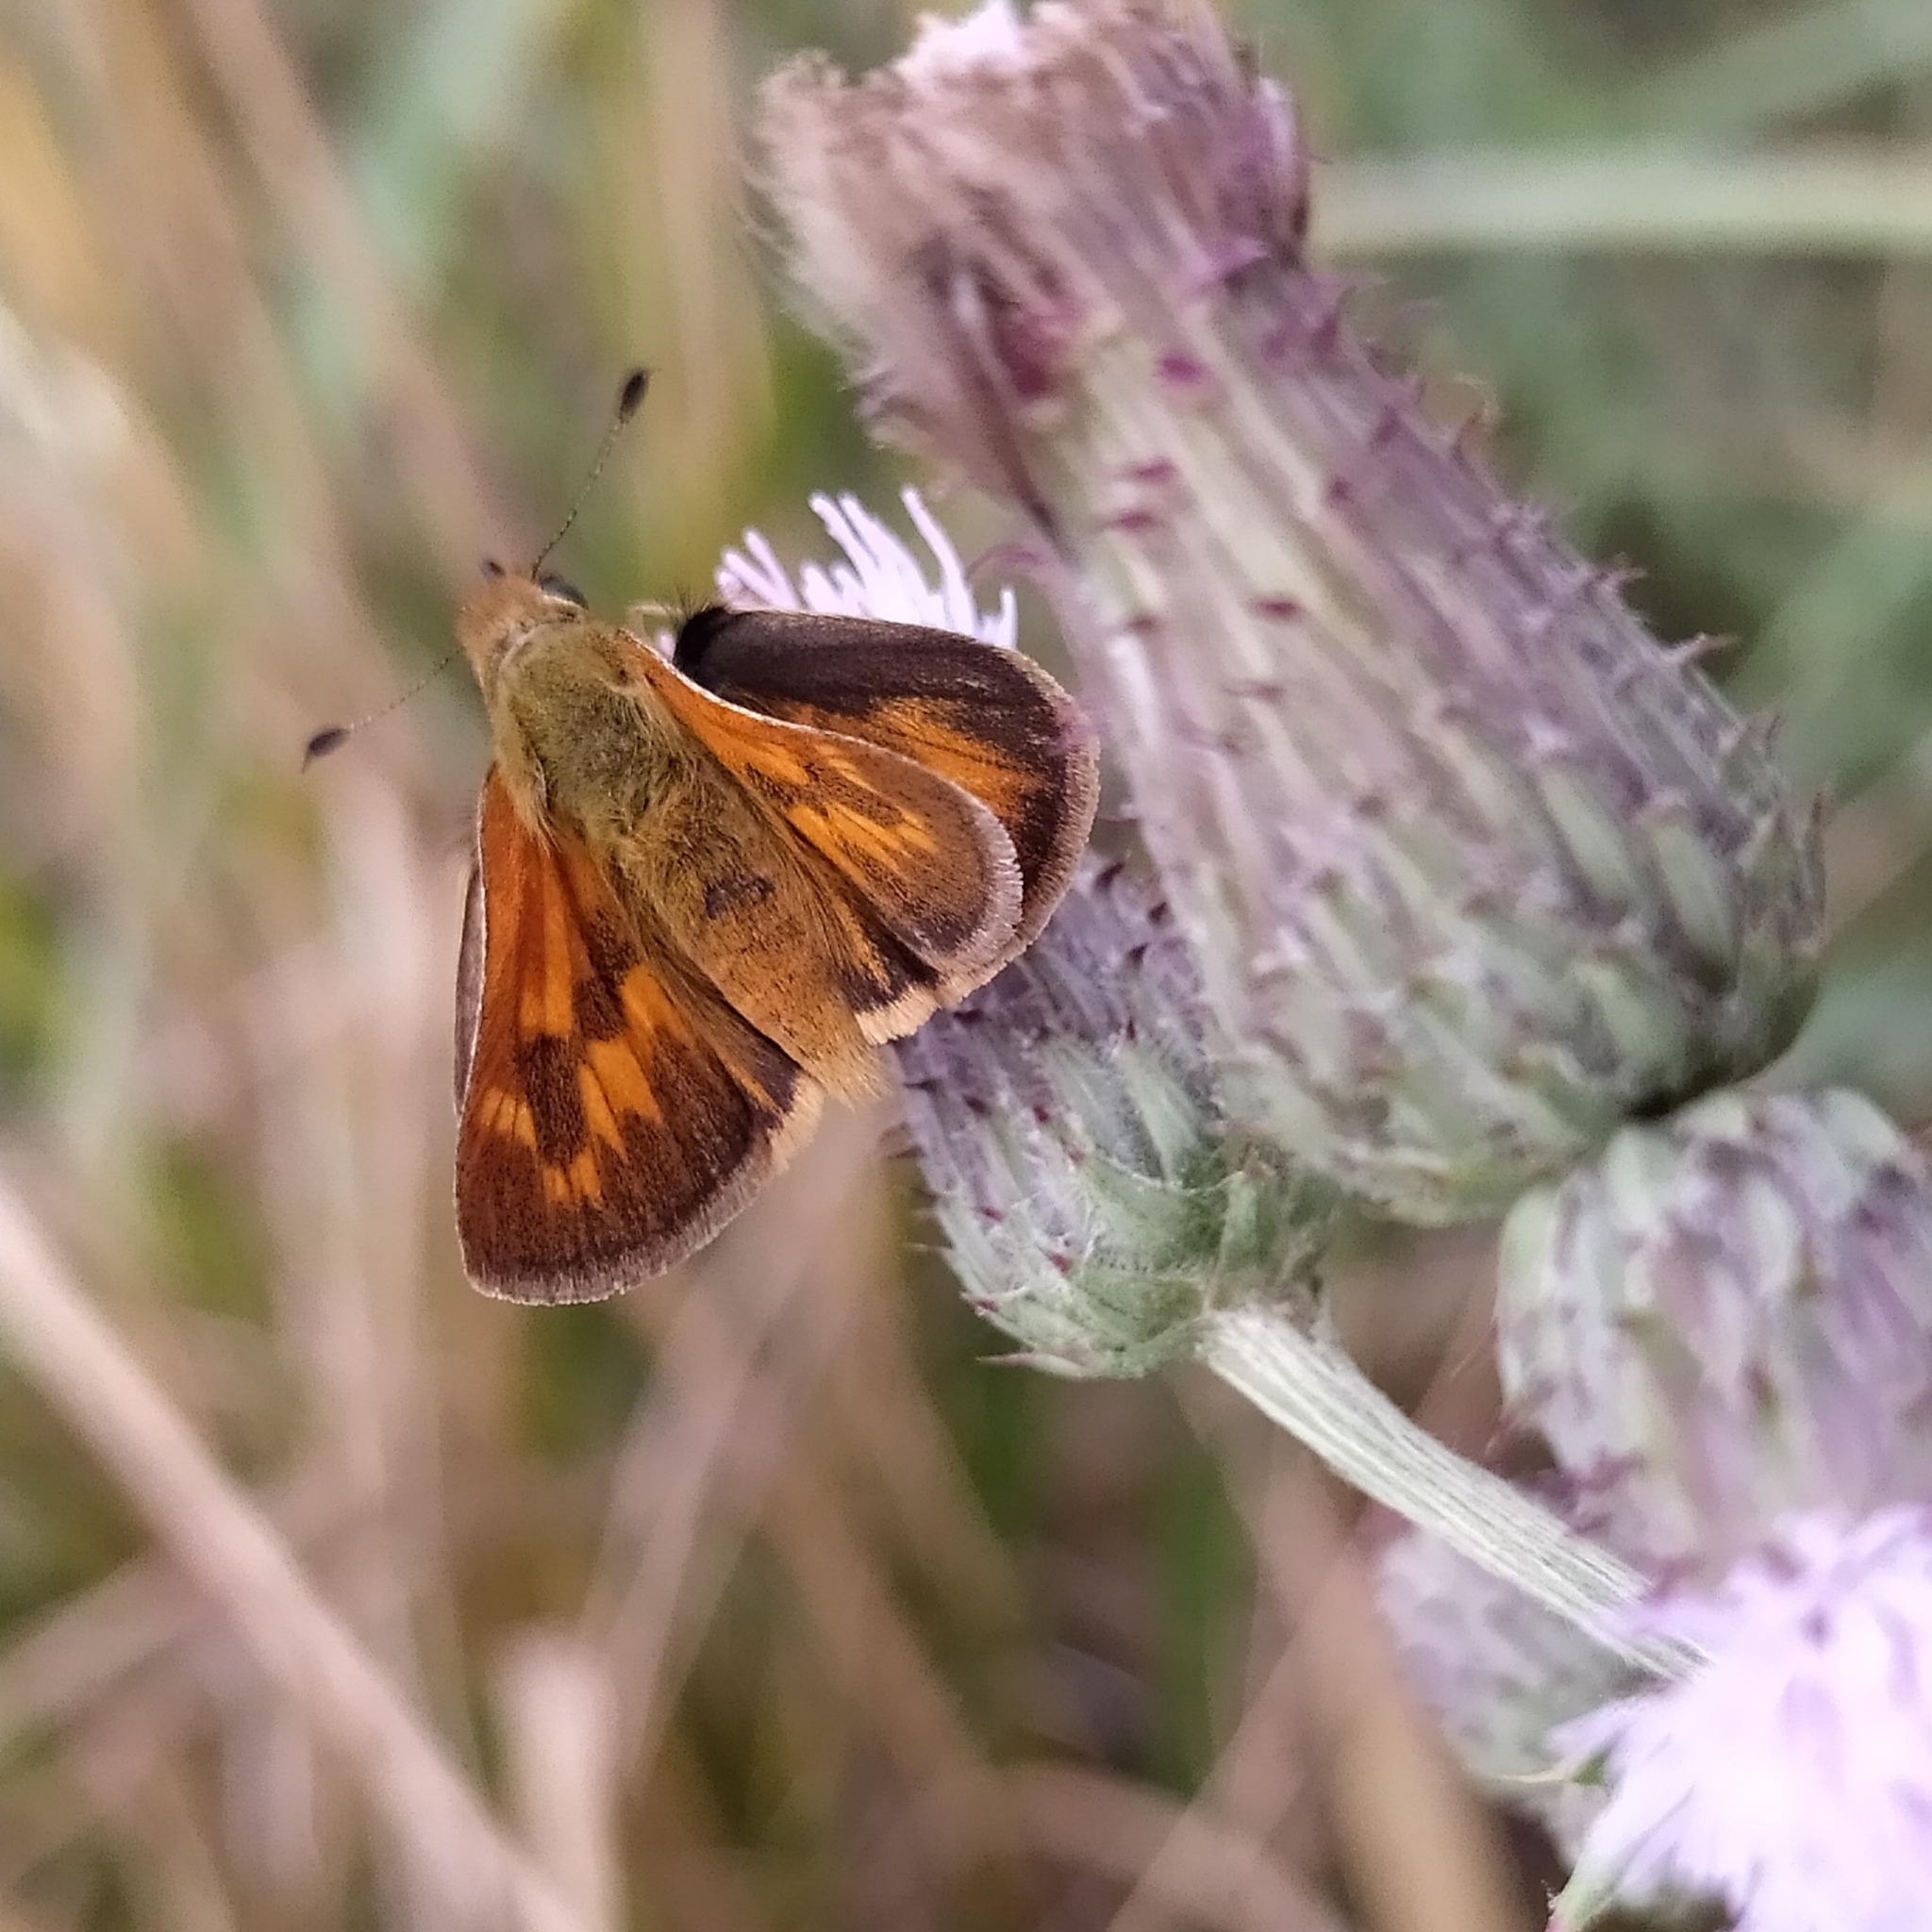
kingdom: Animalia
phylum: Arthropoda
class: Insecta
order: Lepidoptera
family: Hesperiidae
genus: Ochlodes
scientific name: Ochlodes sylvanoides
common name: Woodland skipper
